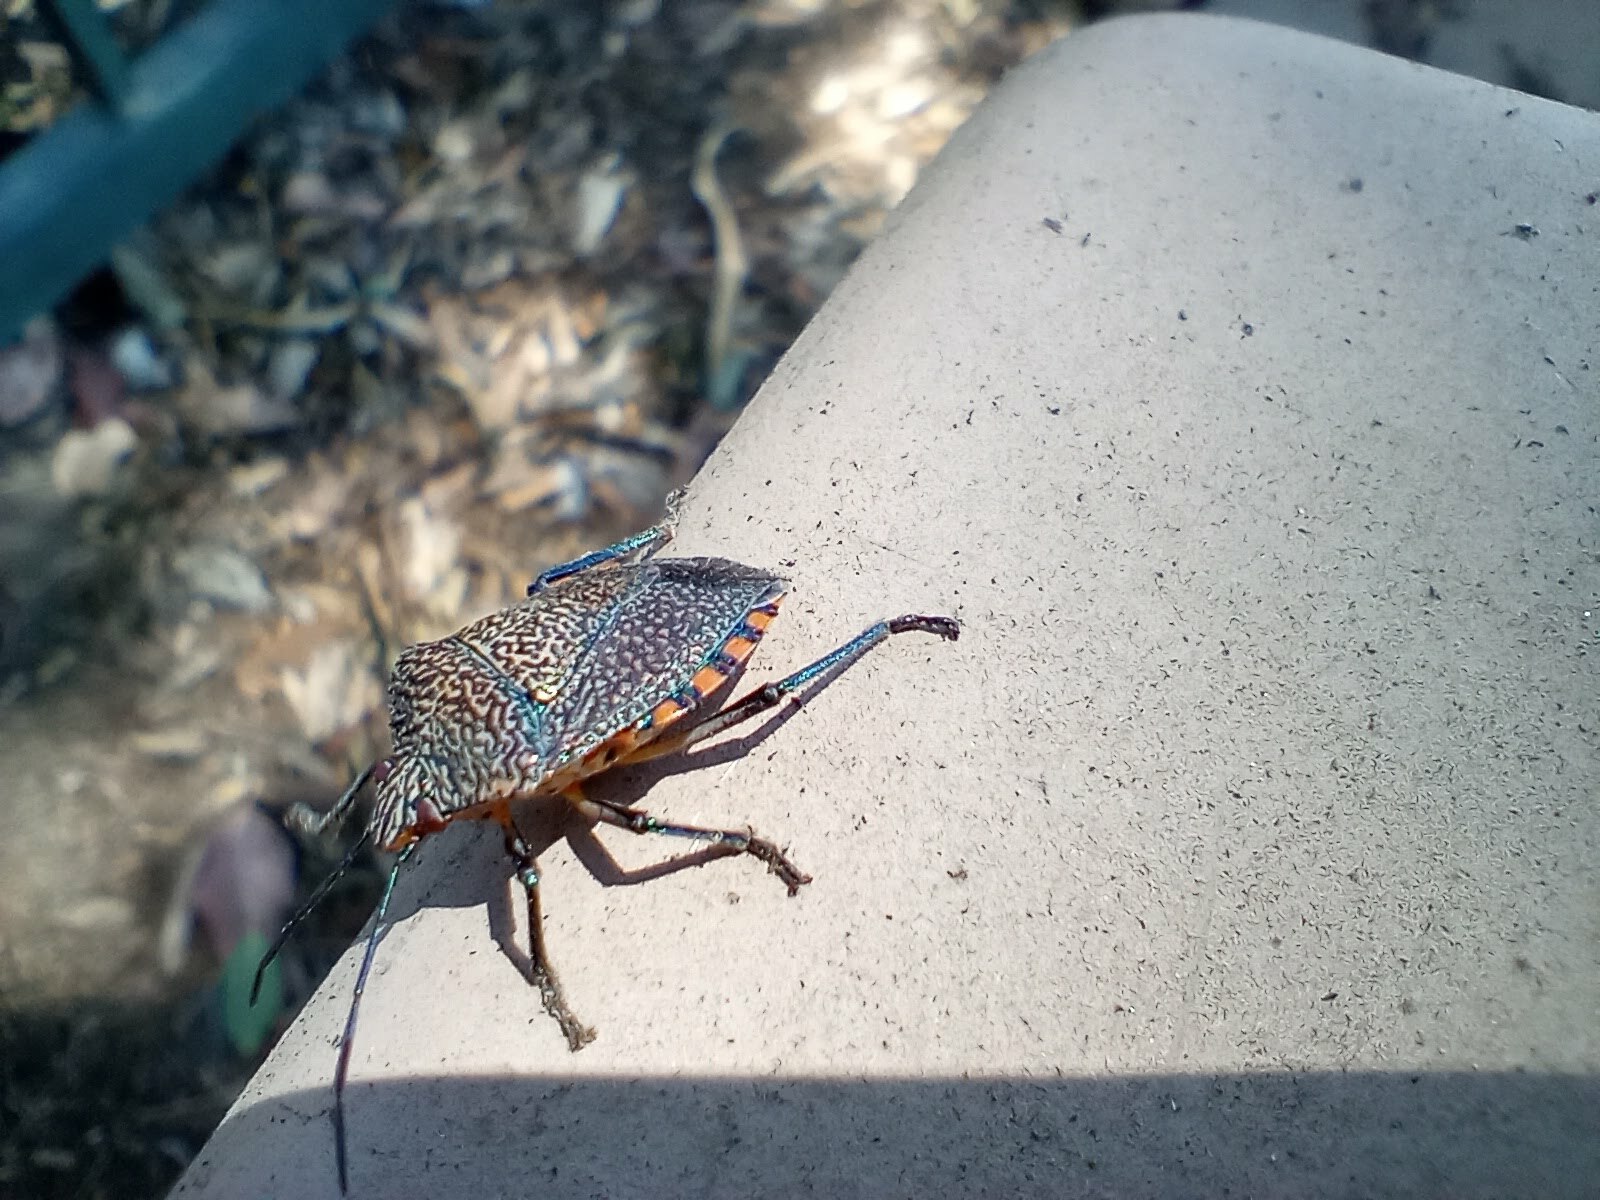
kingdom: Animalia
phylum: Arthropoda
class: Insecta
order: Hemiptera
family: Pentatomidae
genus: Pellaea
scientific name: Pellaea stictica
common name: Stink bug
